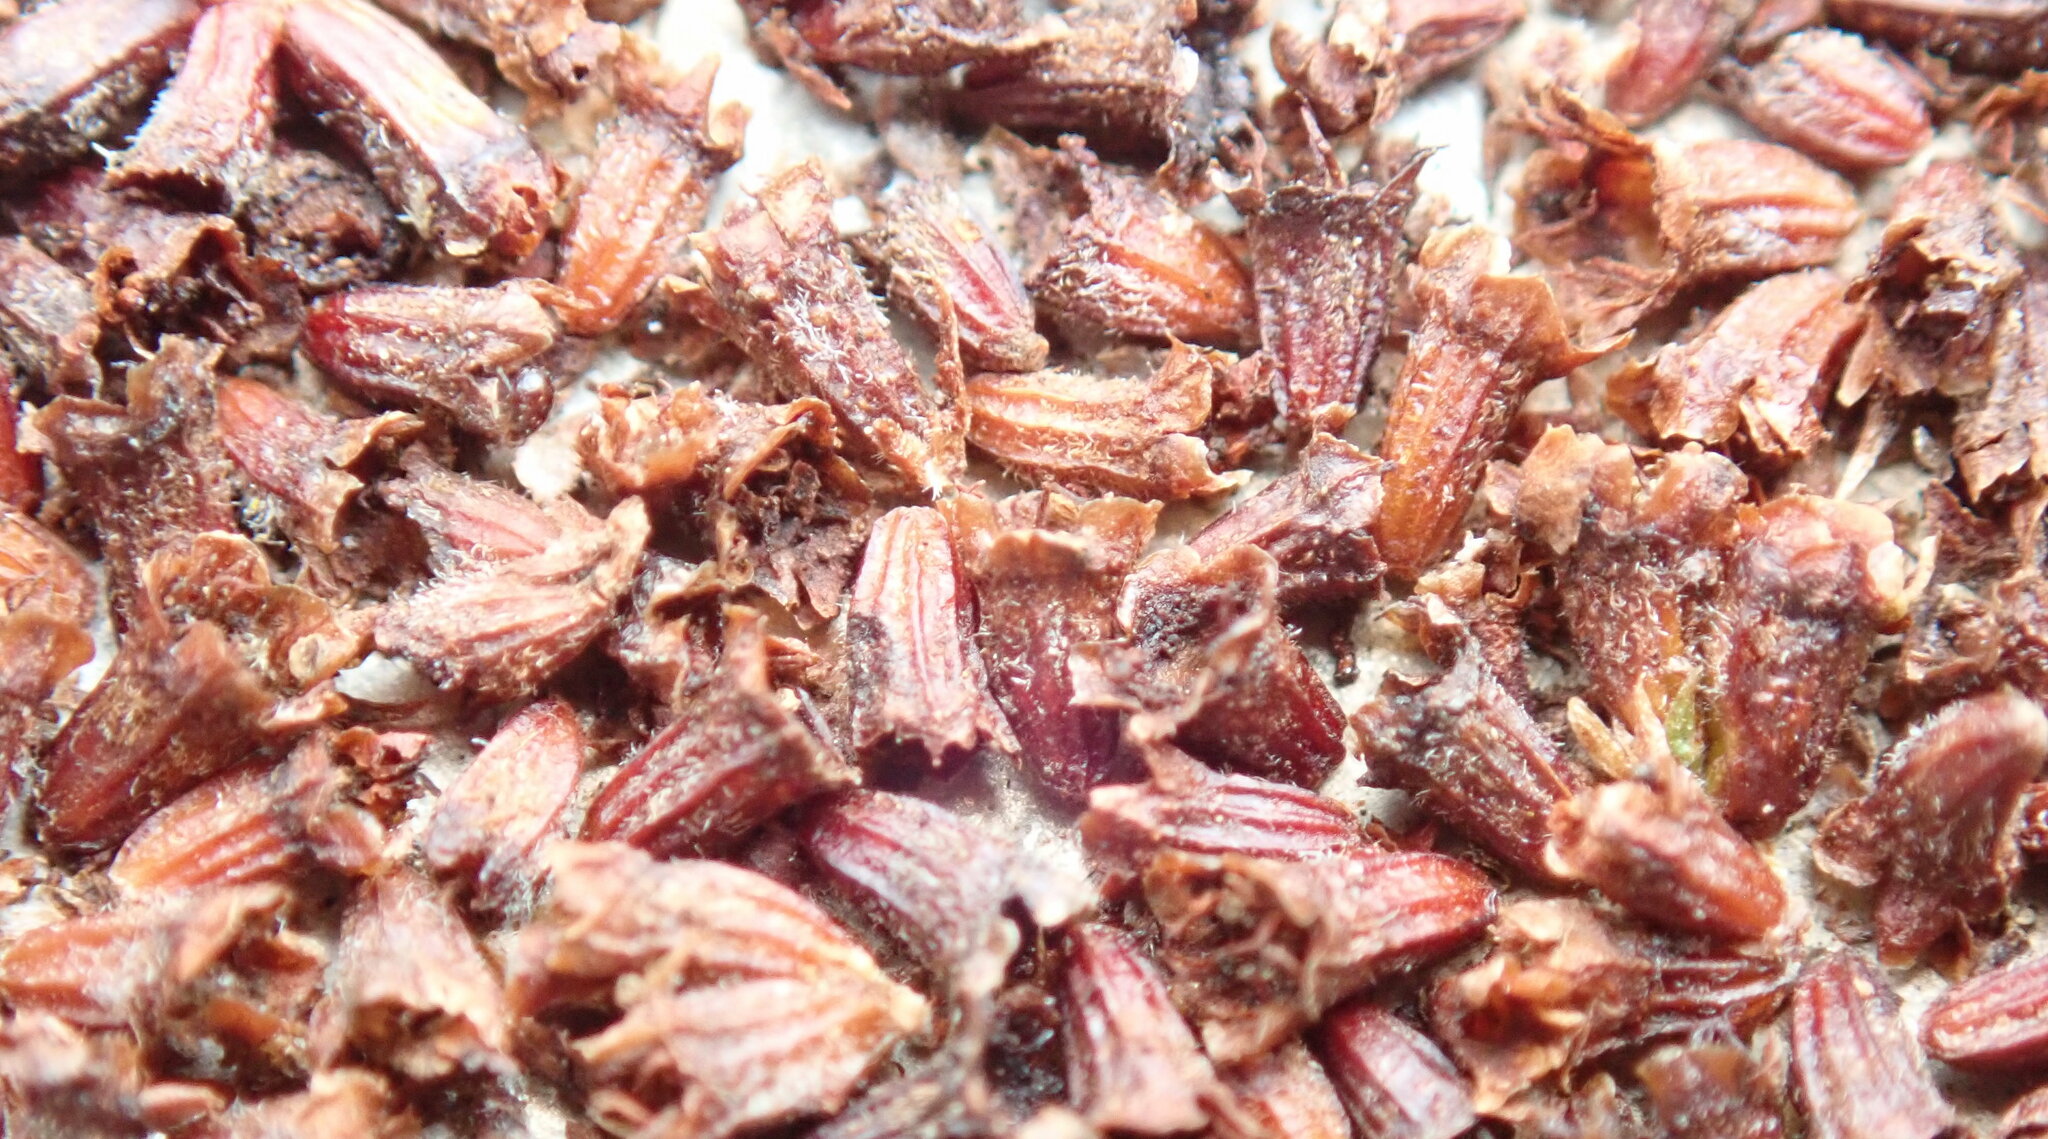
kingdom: Plantae
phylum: Tracheophyta
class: Magnoliopsida
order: Rosales
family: Rosaceae
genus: Adenostoma
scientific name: Adenostoma fasciculatum
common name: Chamise
